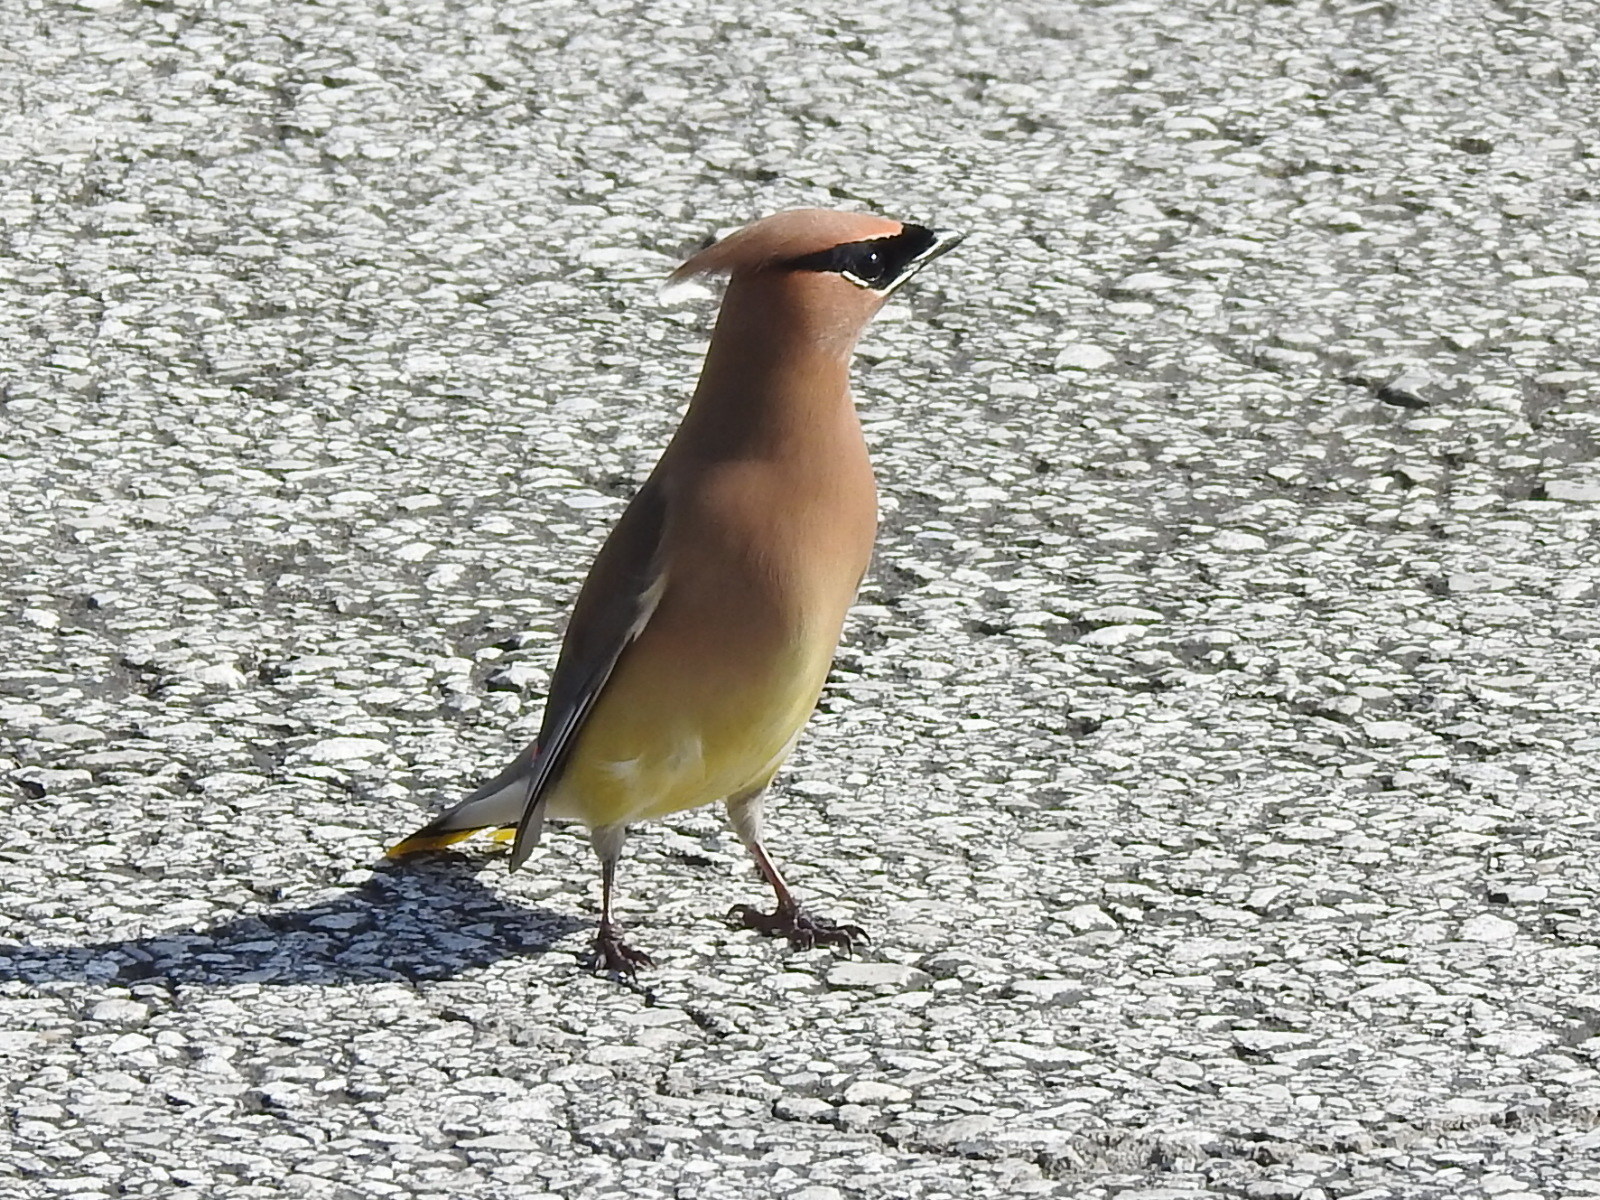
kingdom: Animalia
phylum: Chordata
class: Aves
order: Passeriformes
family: Bombycillidae
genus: Bombycilla
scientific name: Bombycilla cedrorum
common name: Cedar waxwing
